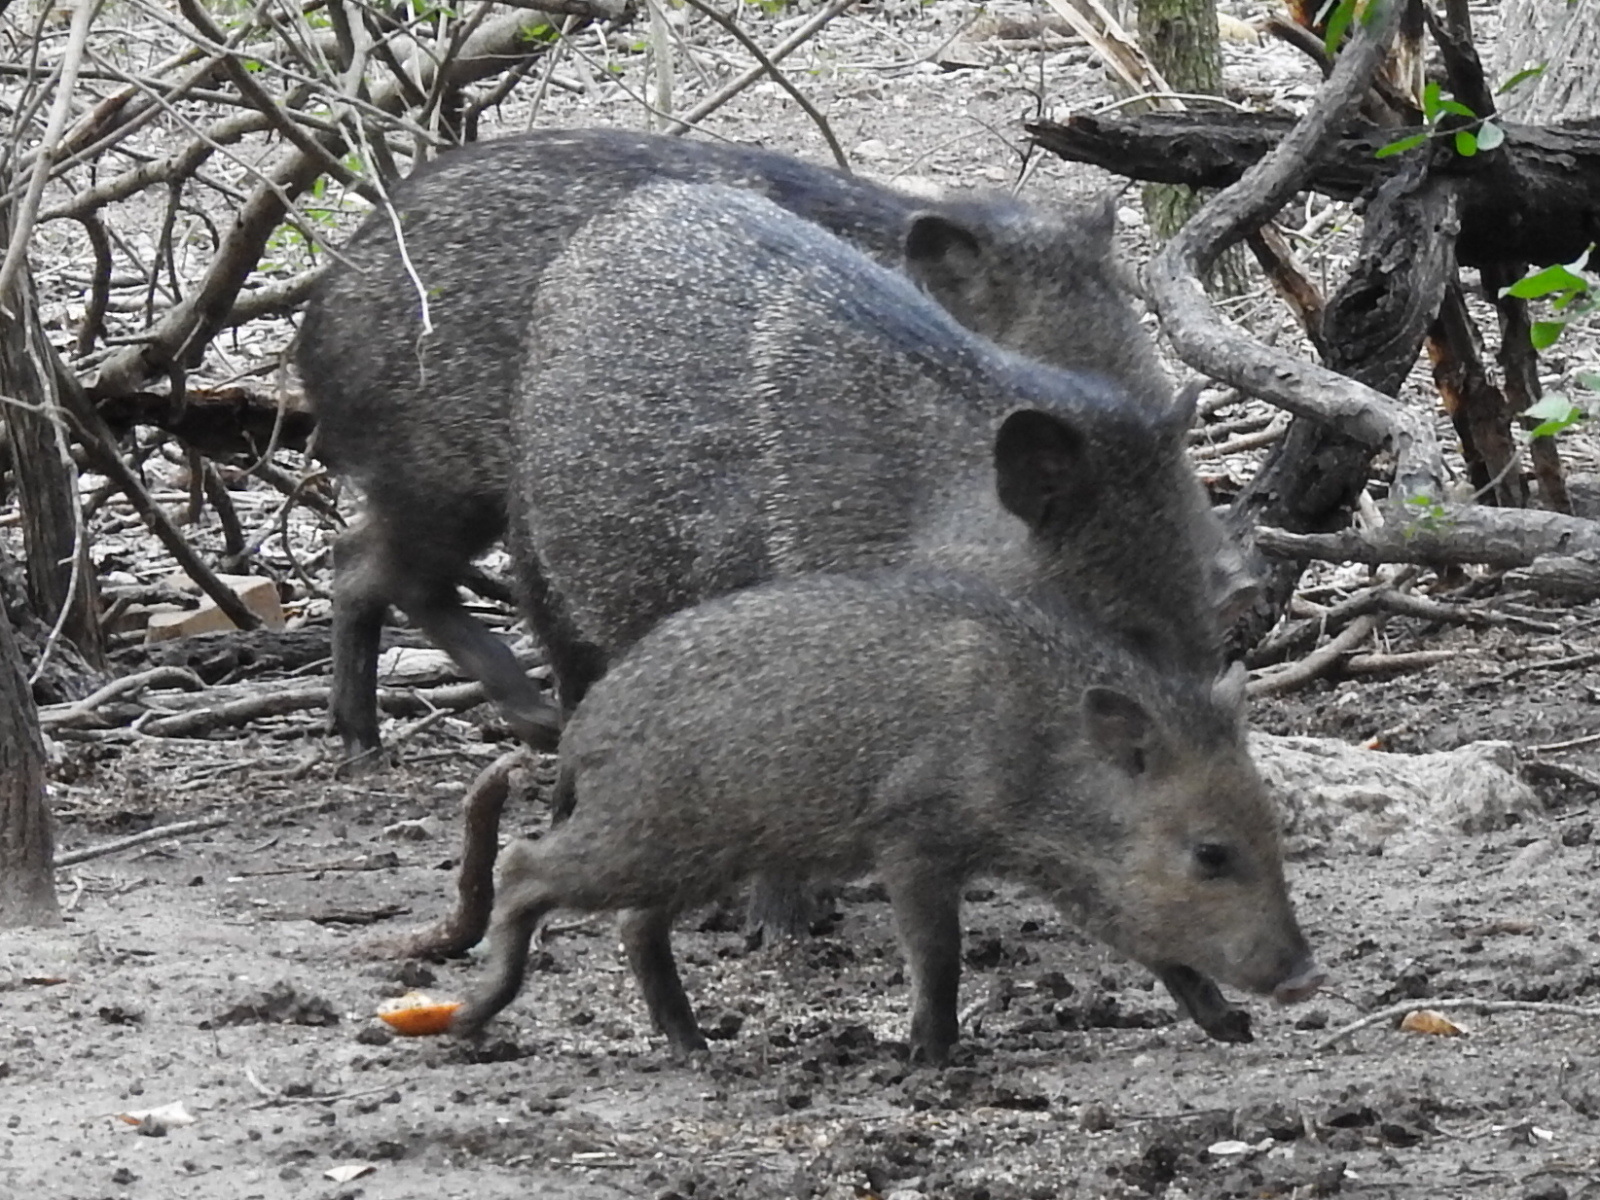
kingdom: Animalia
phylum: Chordata
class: Mammalia
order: Artiodactyla
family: Tayassuidae
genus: Pecari
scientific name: Pecari tajacu
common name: Collared peccary
